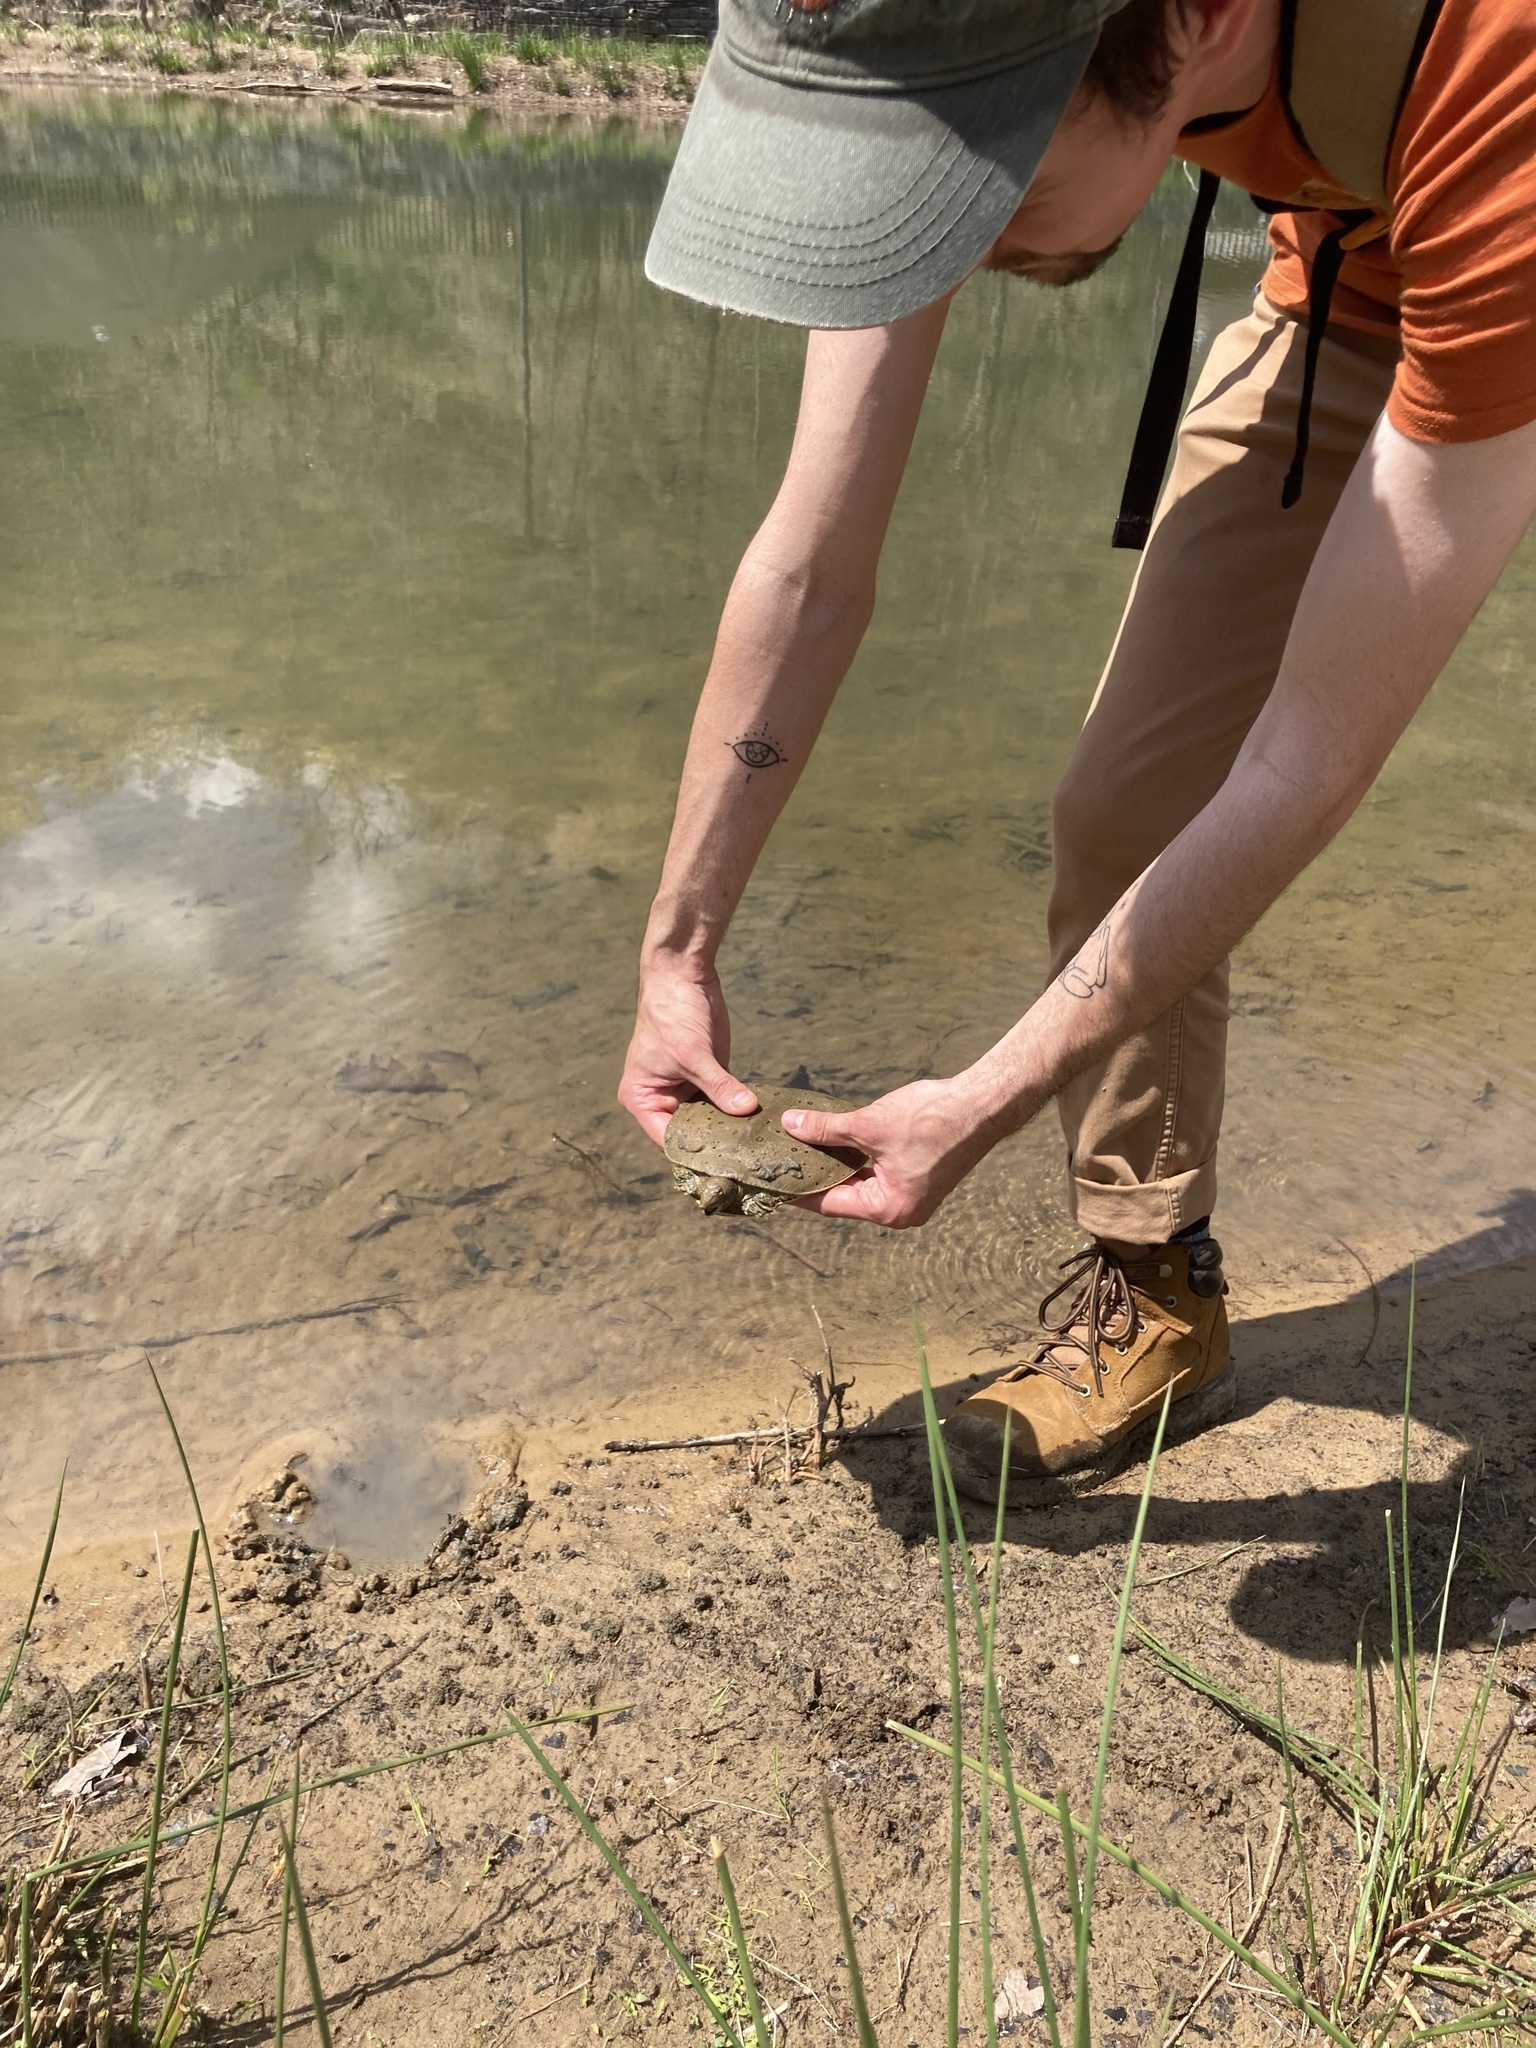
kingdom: Animalia
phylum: Chordata
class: Testudines
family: Trionychidae
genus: Apalone
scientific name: Apalone spinifera
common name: Spiny softshell turtle
